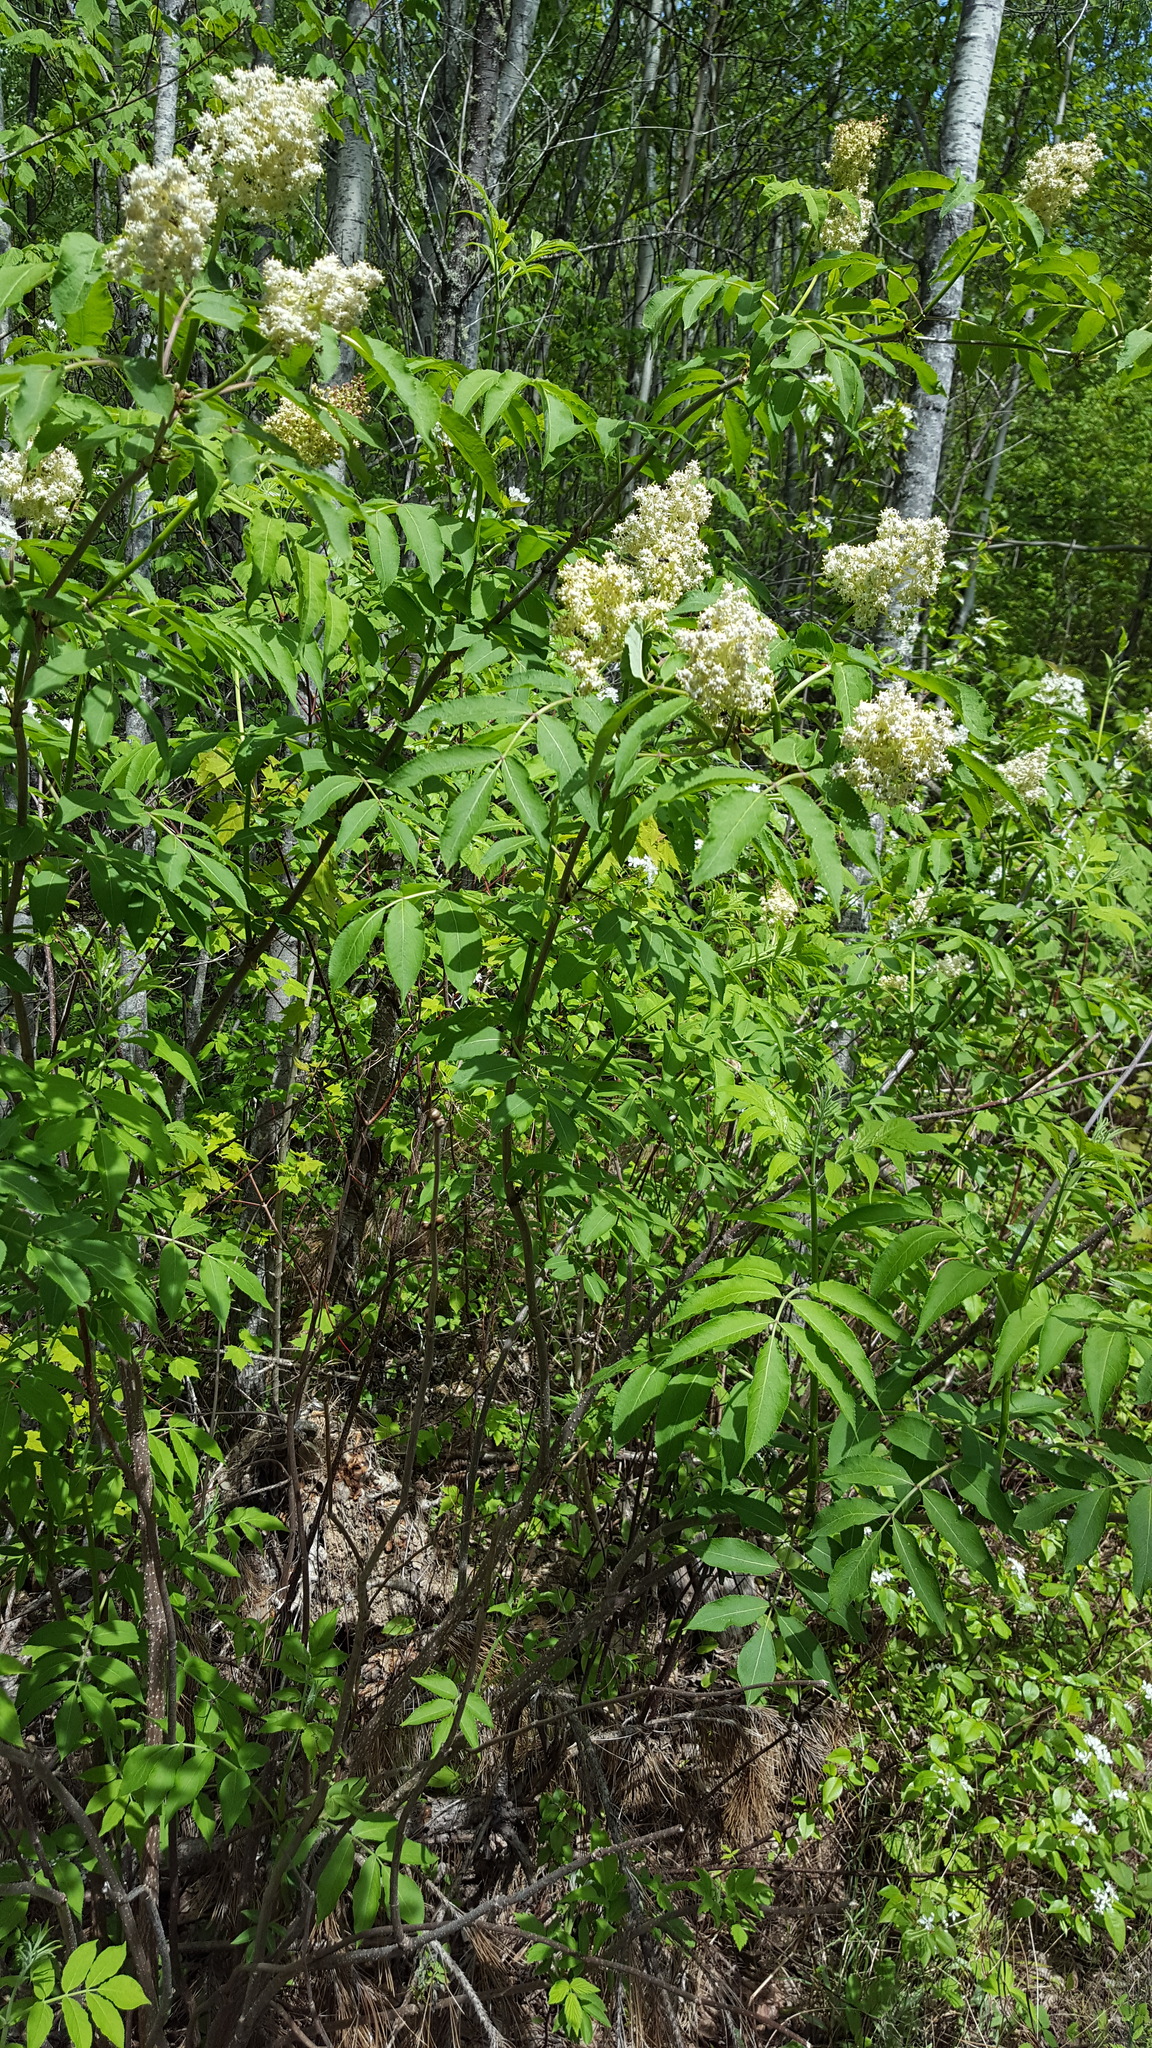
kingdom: Plantae
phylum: Tracheophyta
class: Magnoliopsida
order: Dipsacales
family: Viburnaceae
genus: Sambucus
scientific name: Sambucus racemosa
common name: Red-berried elder
